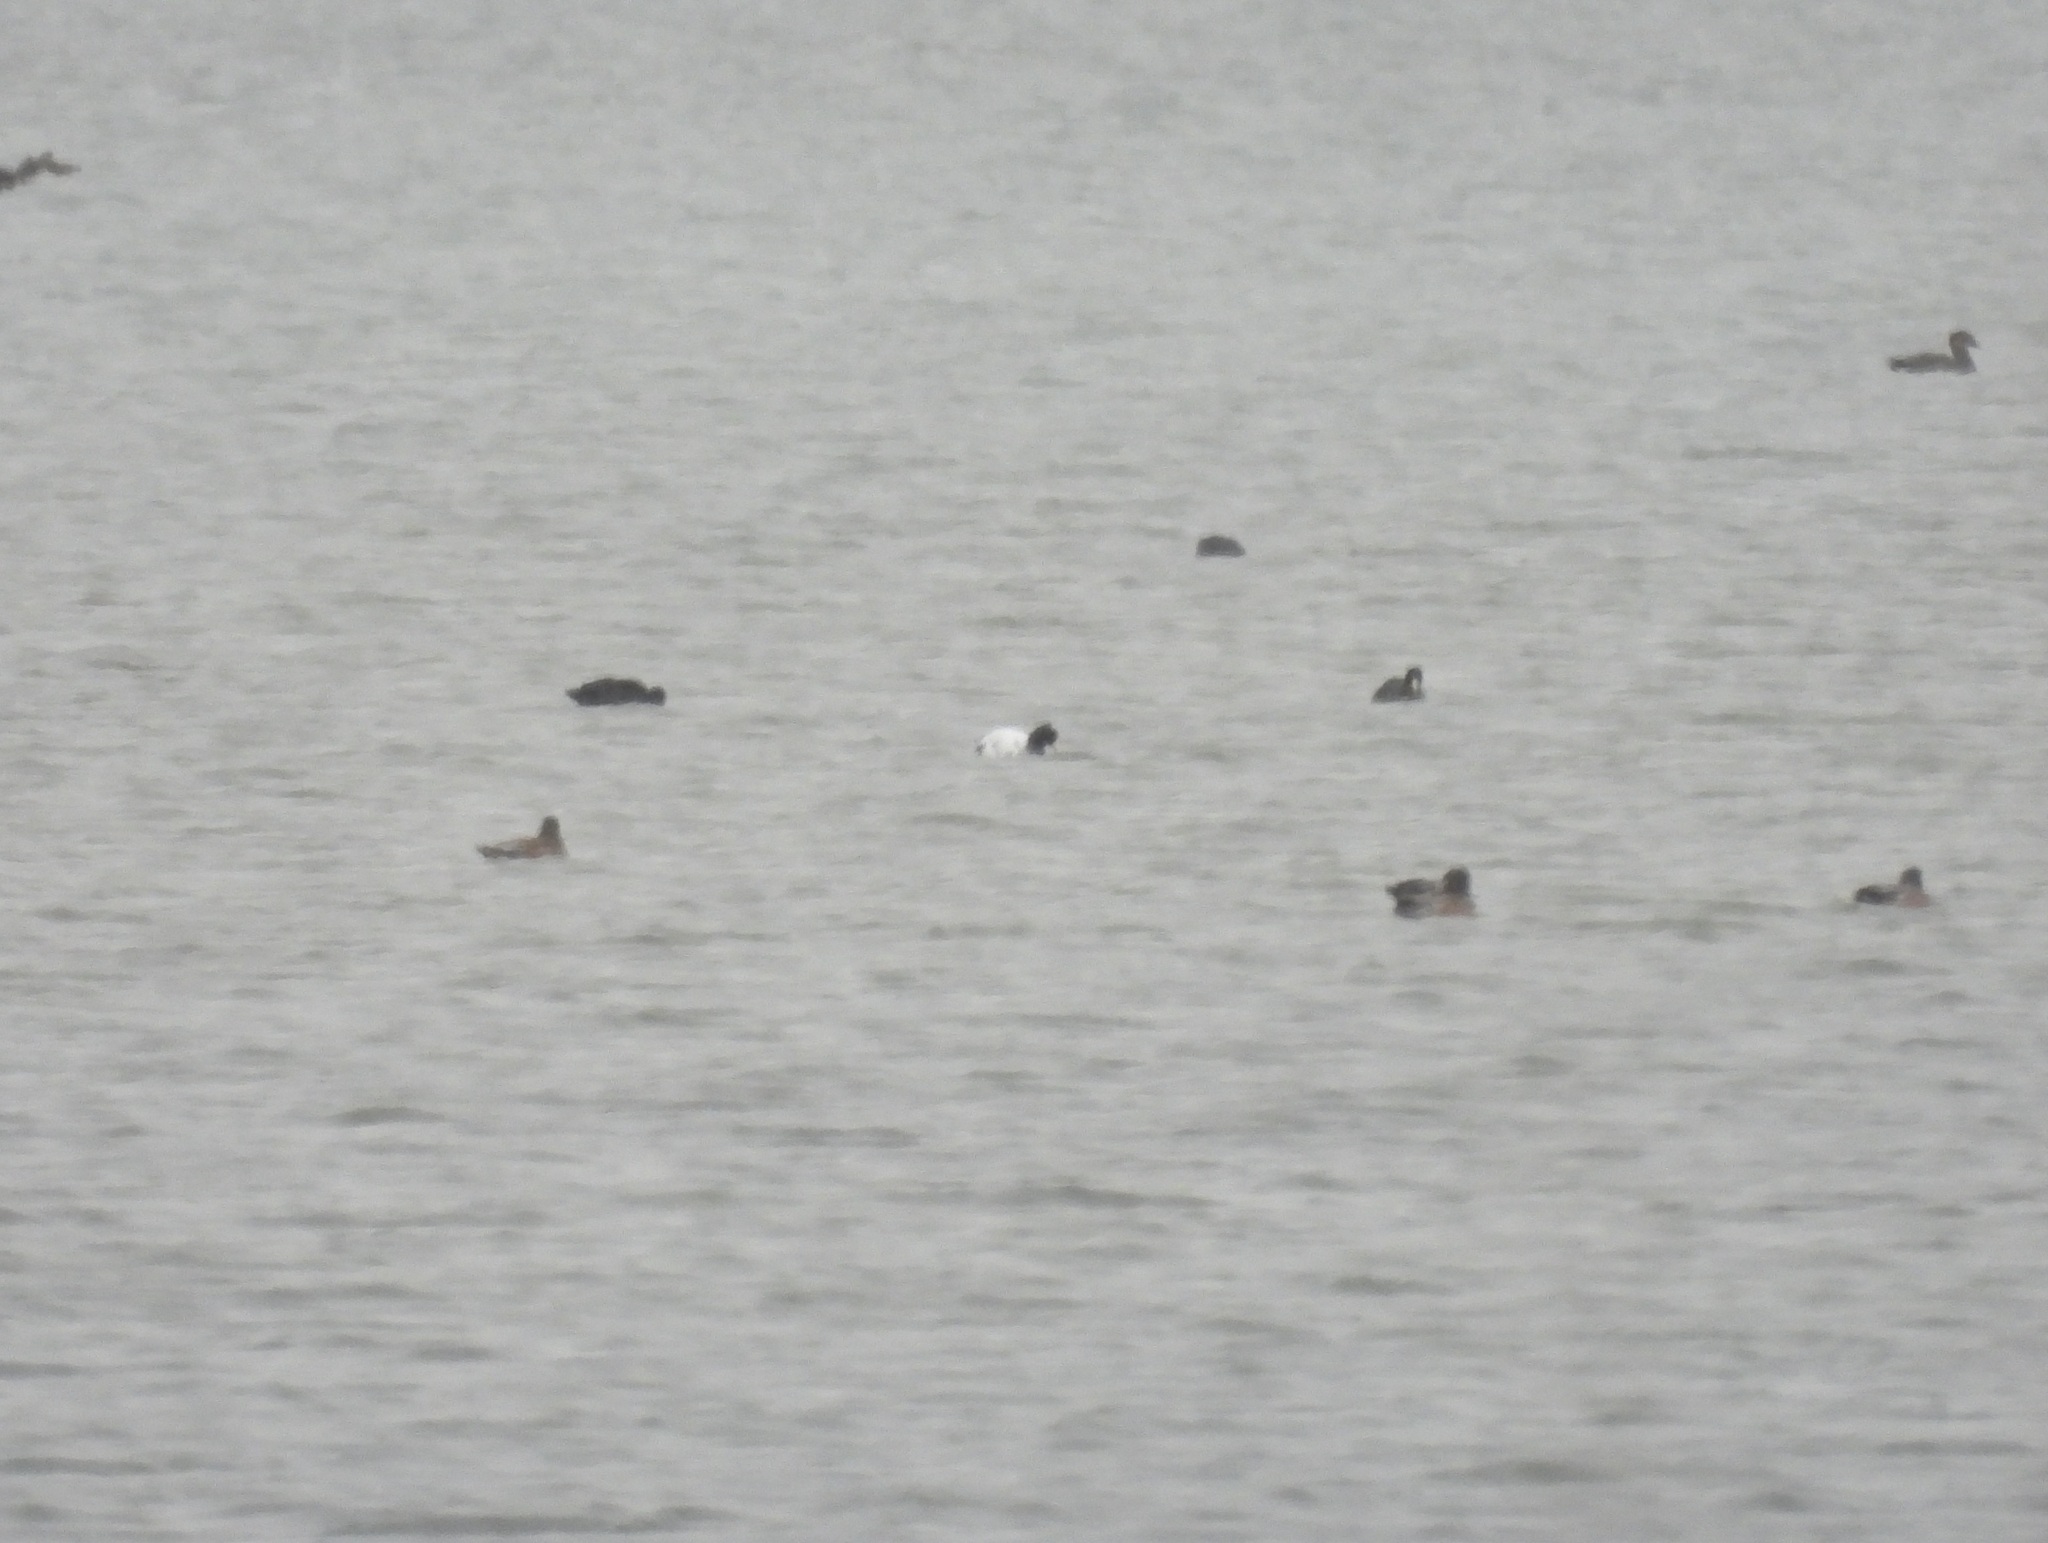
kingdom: Animalia
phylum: Chordata
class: Aves
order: Gruiformes
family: Rallidae
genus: Fulica
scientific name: Fulica americana
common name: American coot
